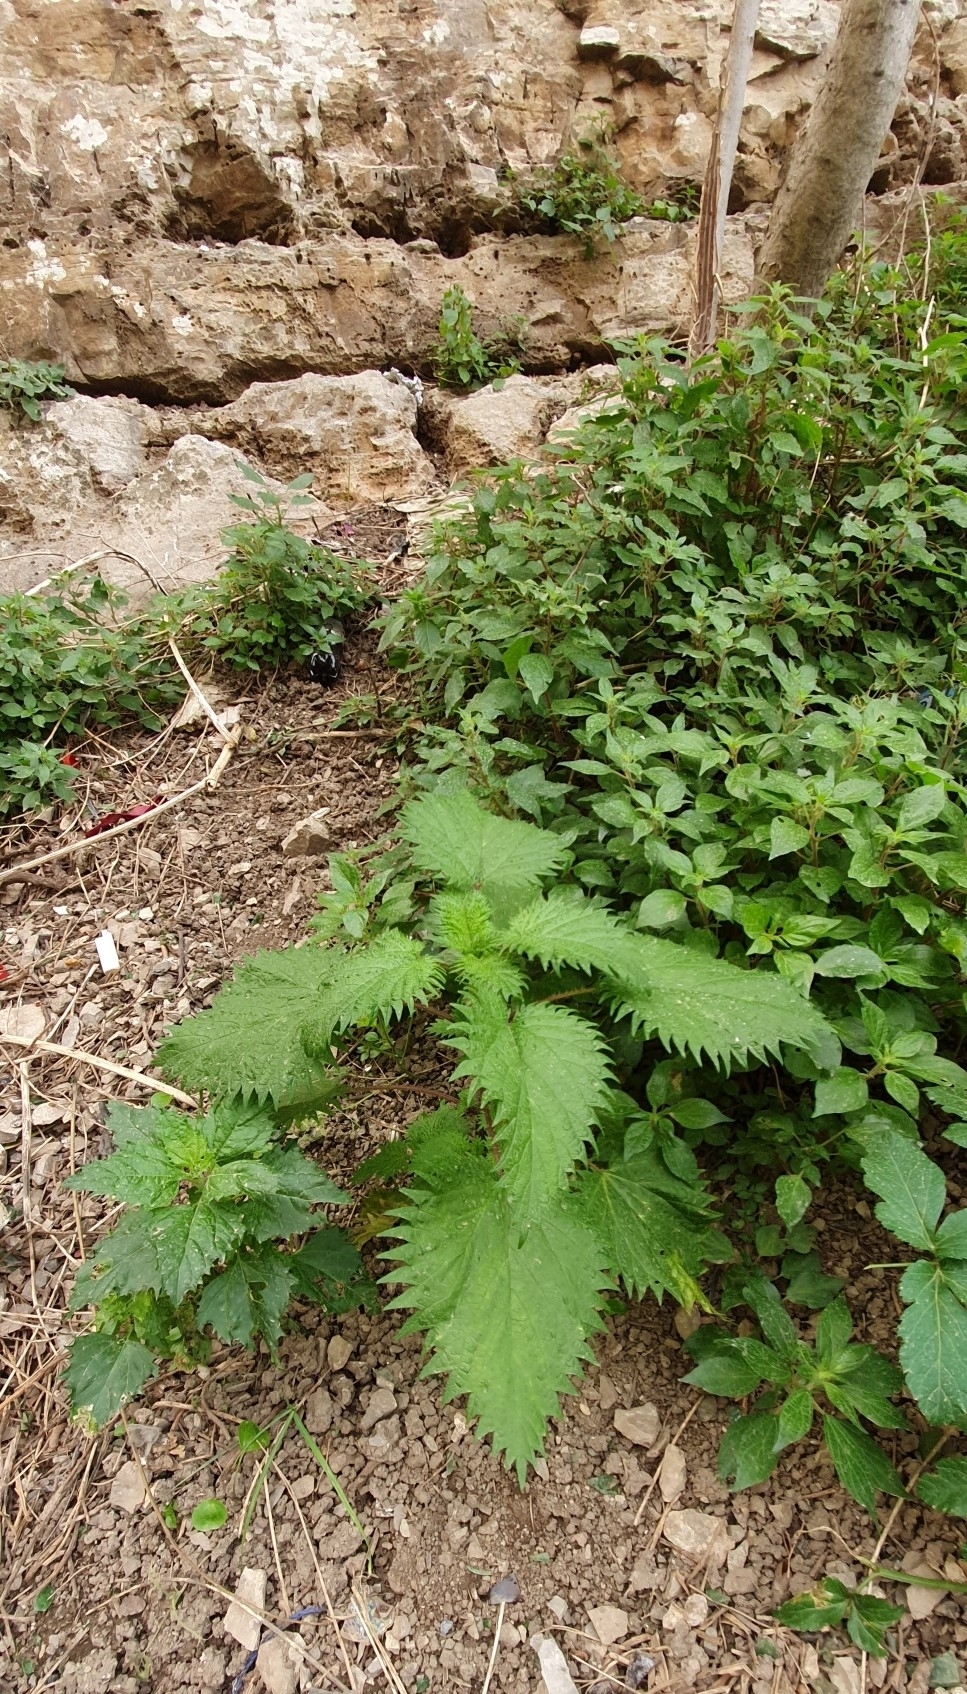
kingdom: Plantae
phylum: Tracheophyta
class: Magnoliopsida
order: Rosales
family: Urticaceae
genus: Urtica
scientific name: Urtica pilulifera
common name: Roman nettle
